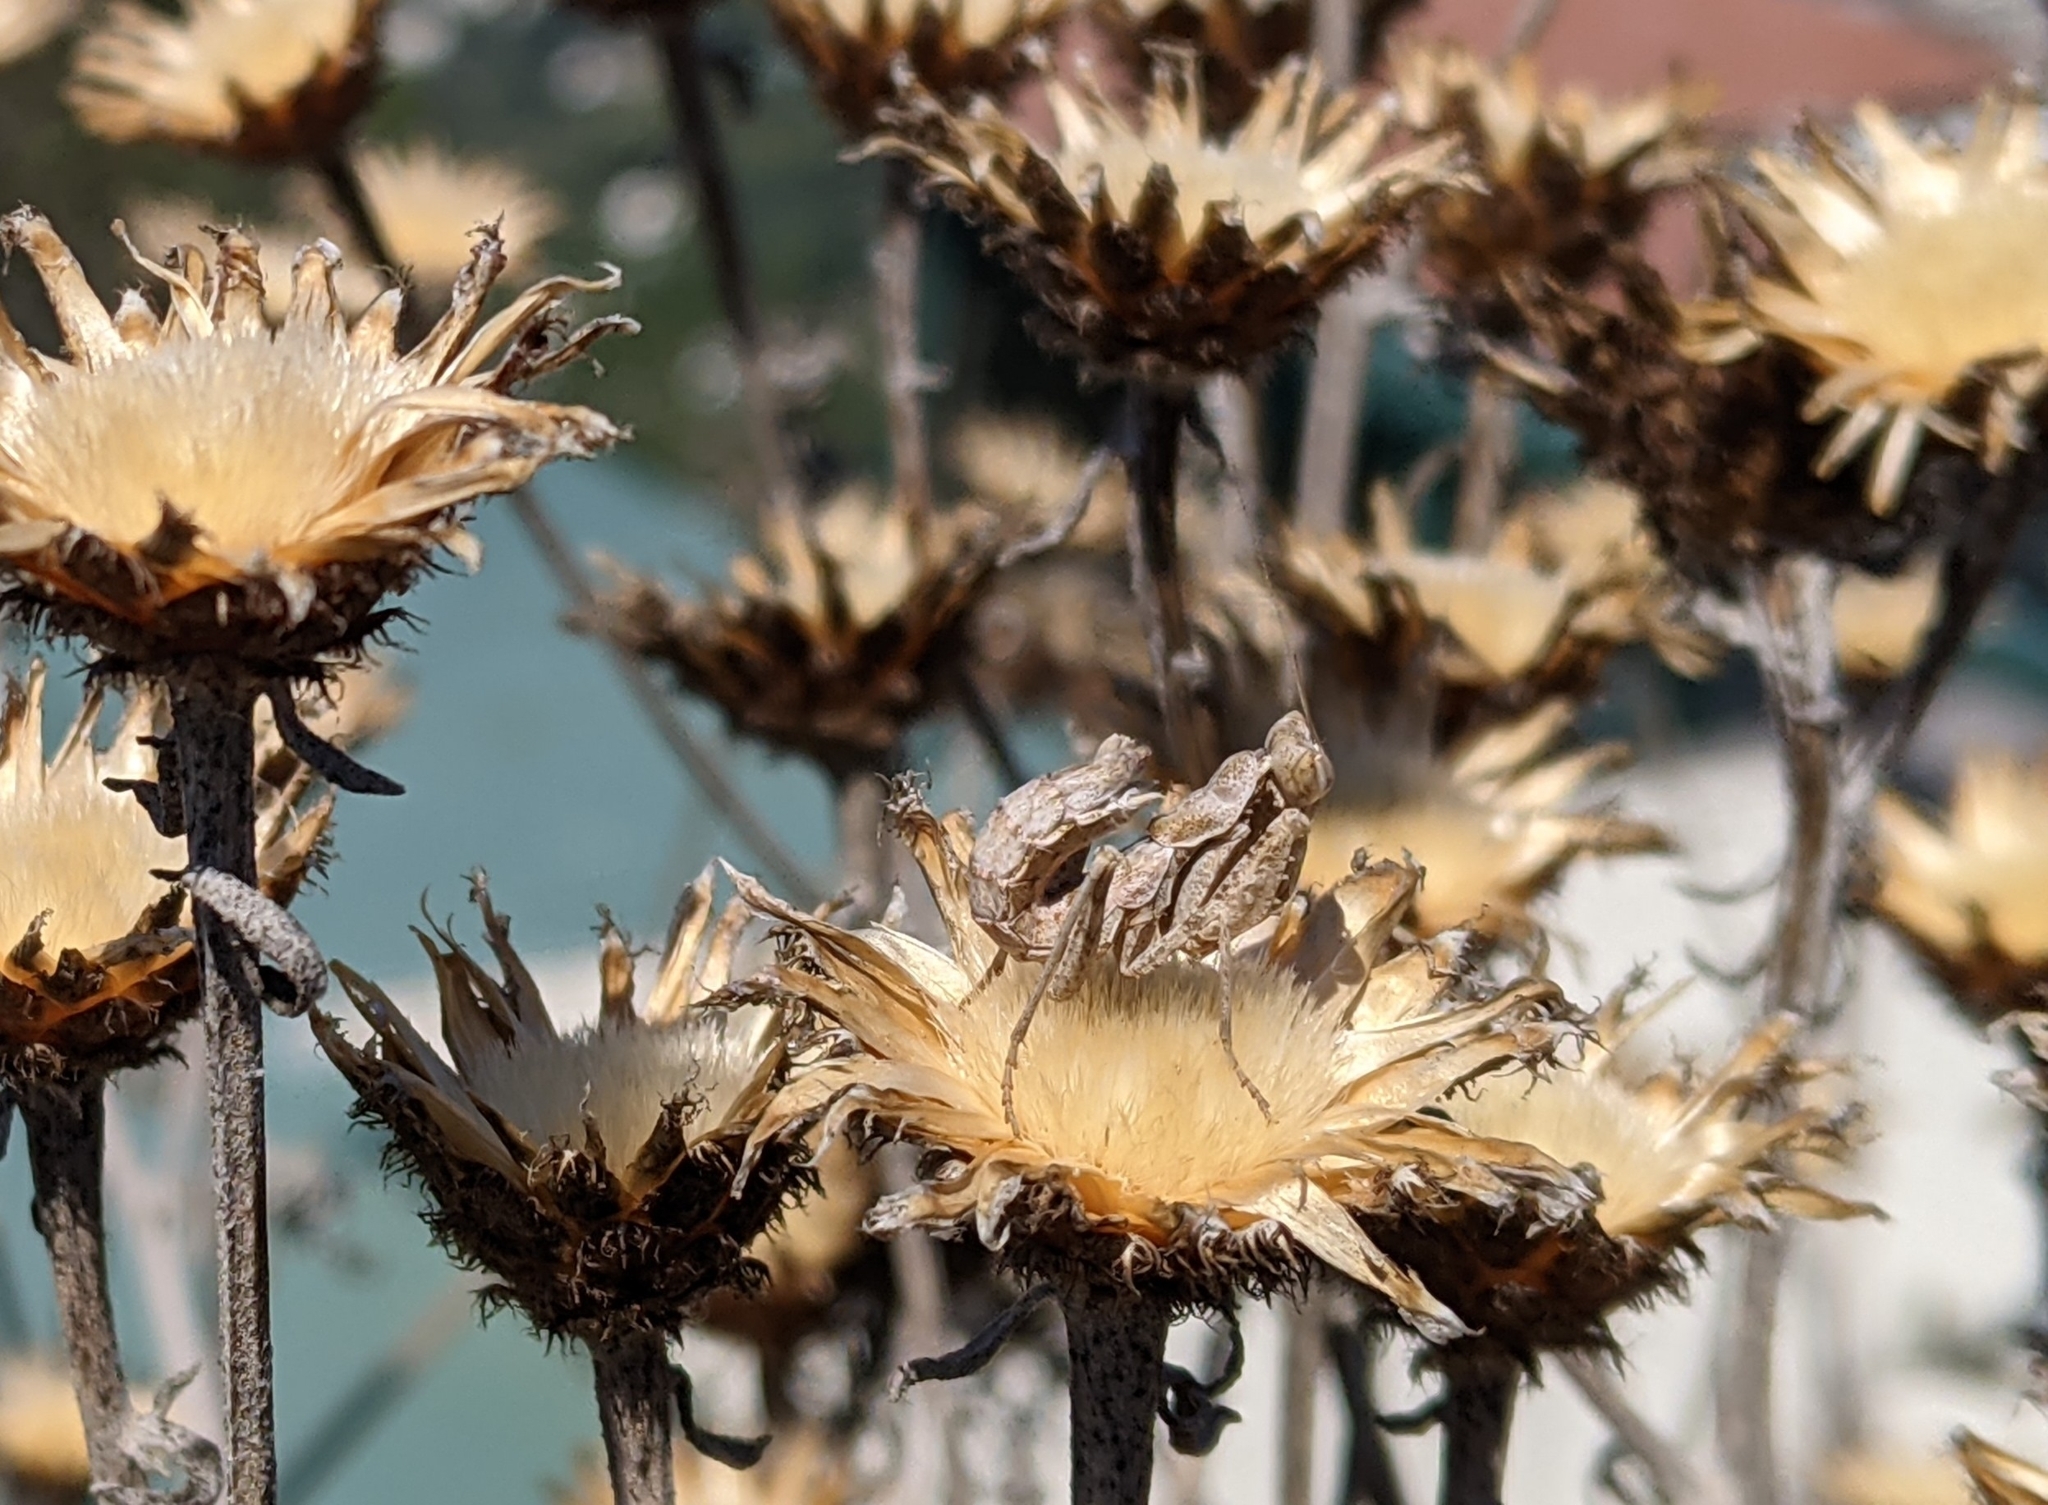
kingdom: Animalia
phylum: Arthropoda
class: Insecta
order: Mantodea
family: Amelidae
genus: Ameles
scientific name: Ameles spallanzania
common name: European dwarf mantis
